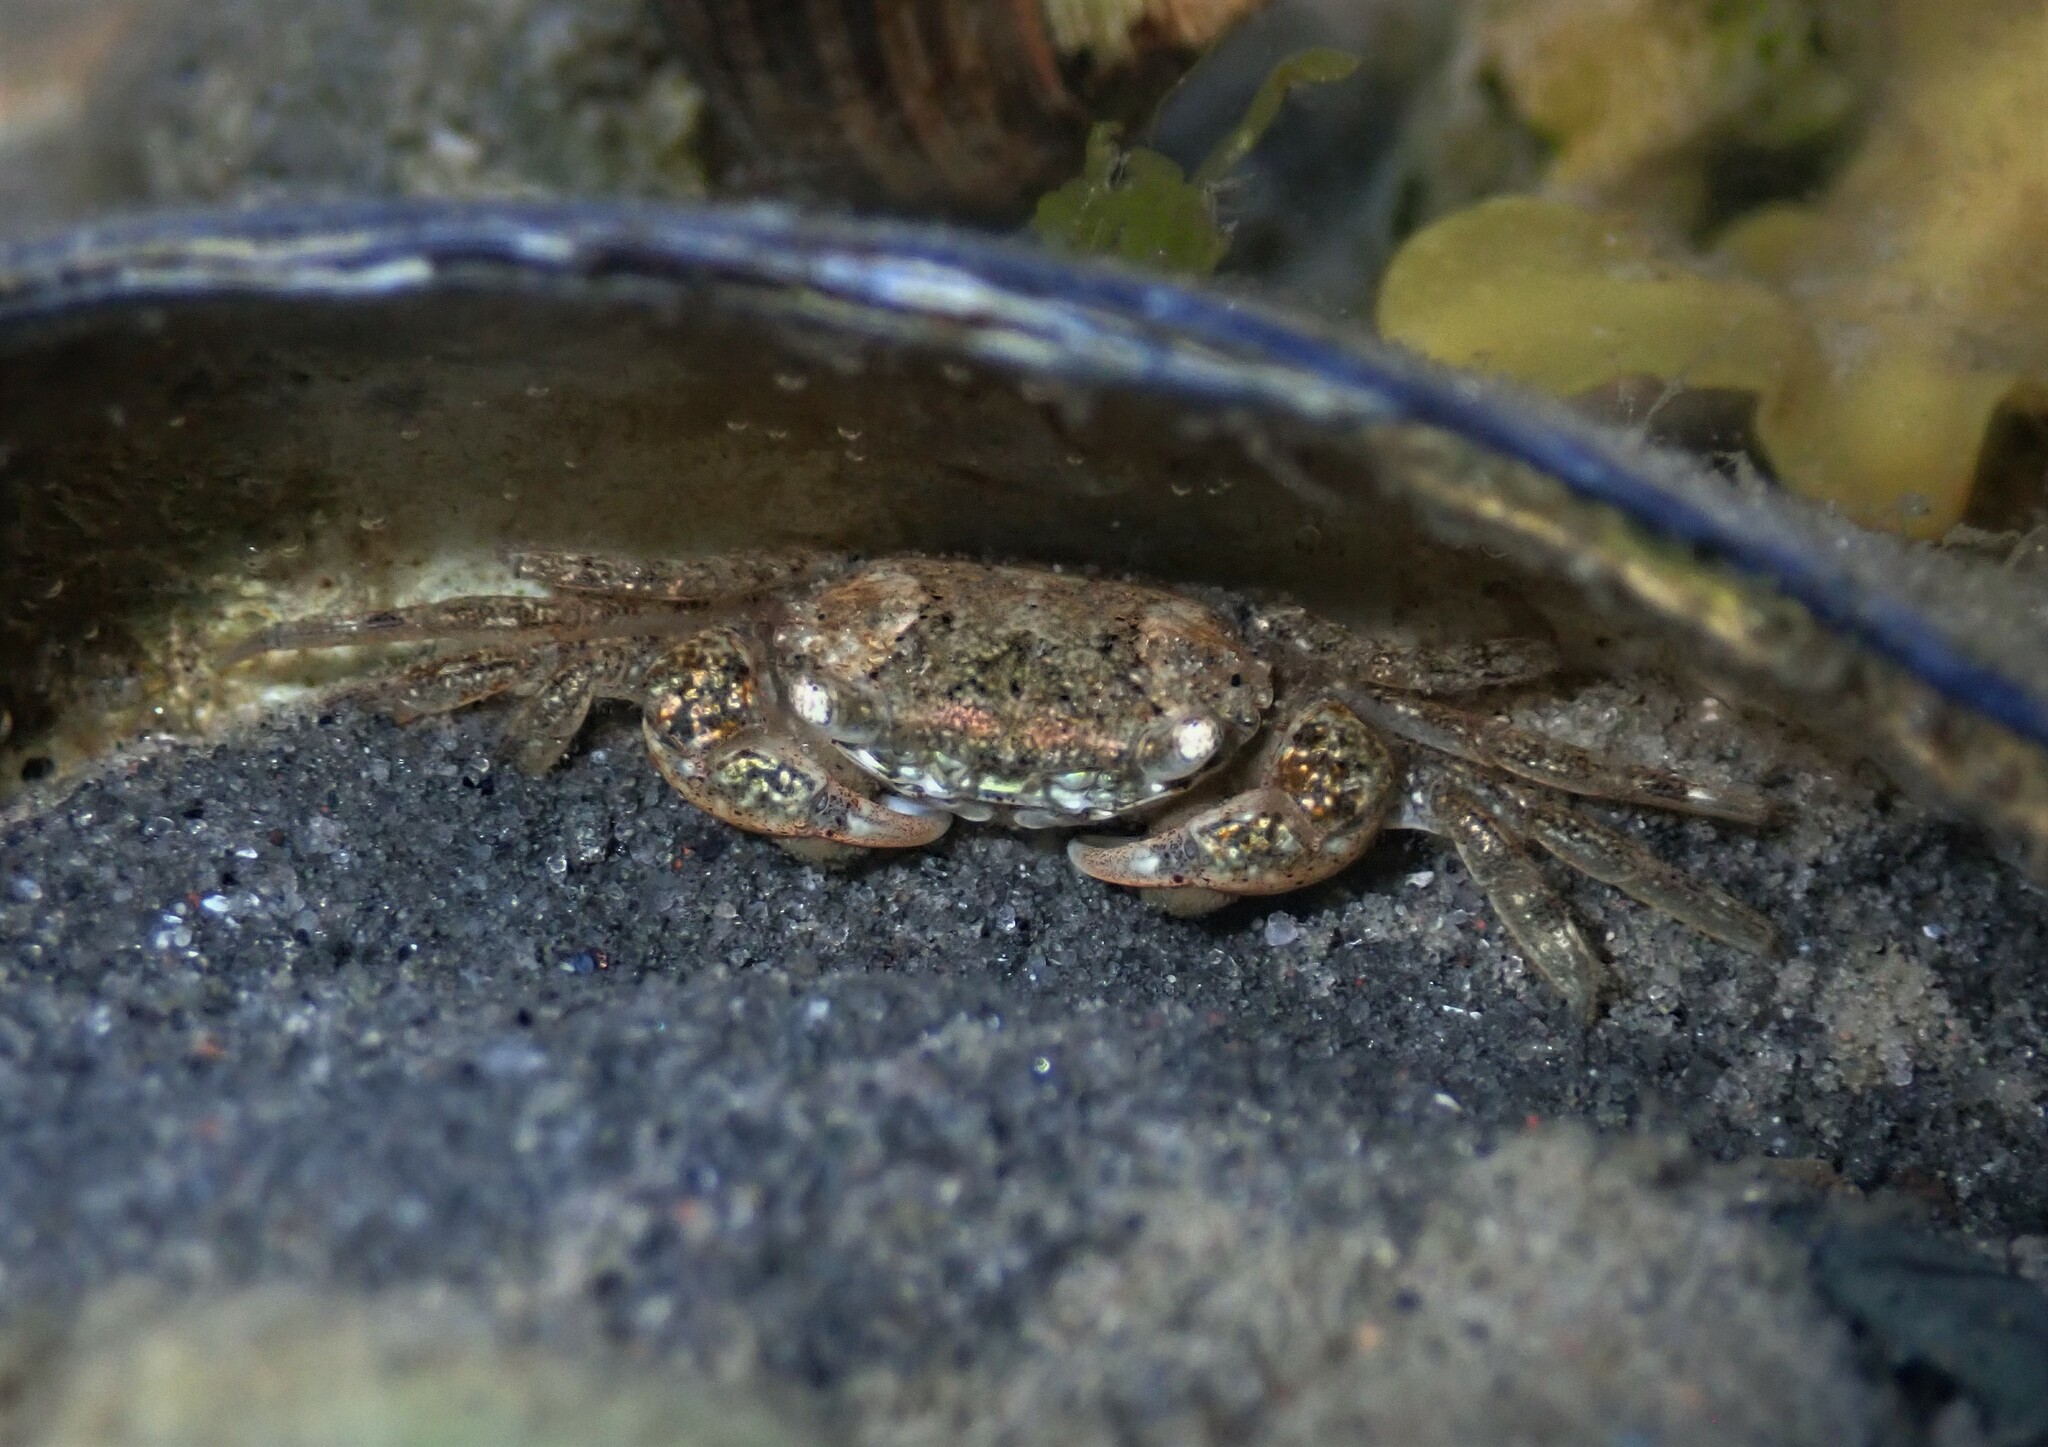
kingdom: Animalia
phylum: Arthropoda
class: Malacostraca
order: Decapoda
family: Varunidae
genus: Hemigrapsus
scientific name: Hemigrapsus takanoi
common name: Asian brush crab
